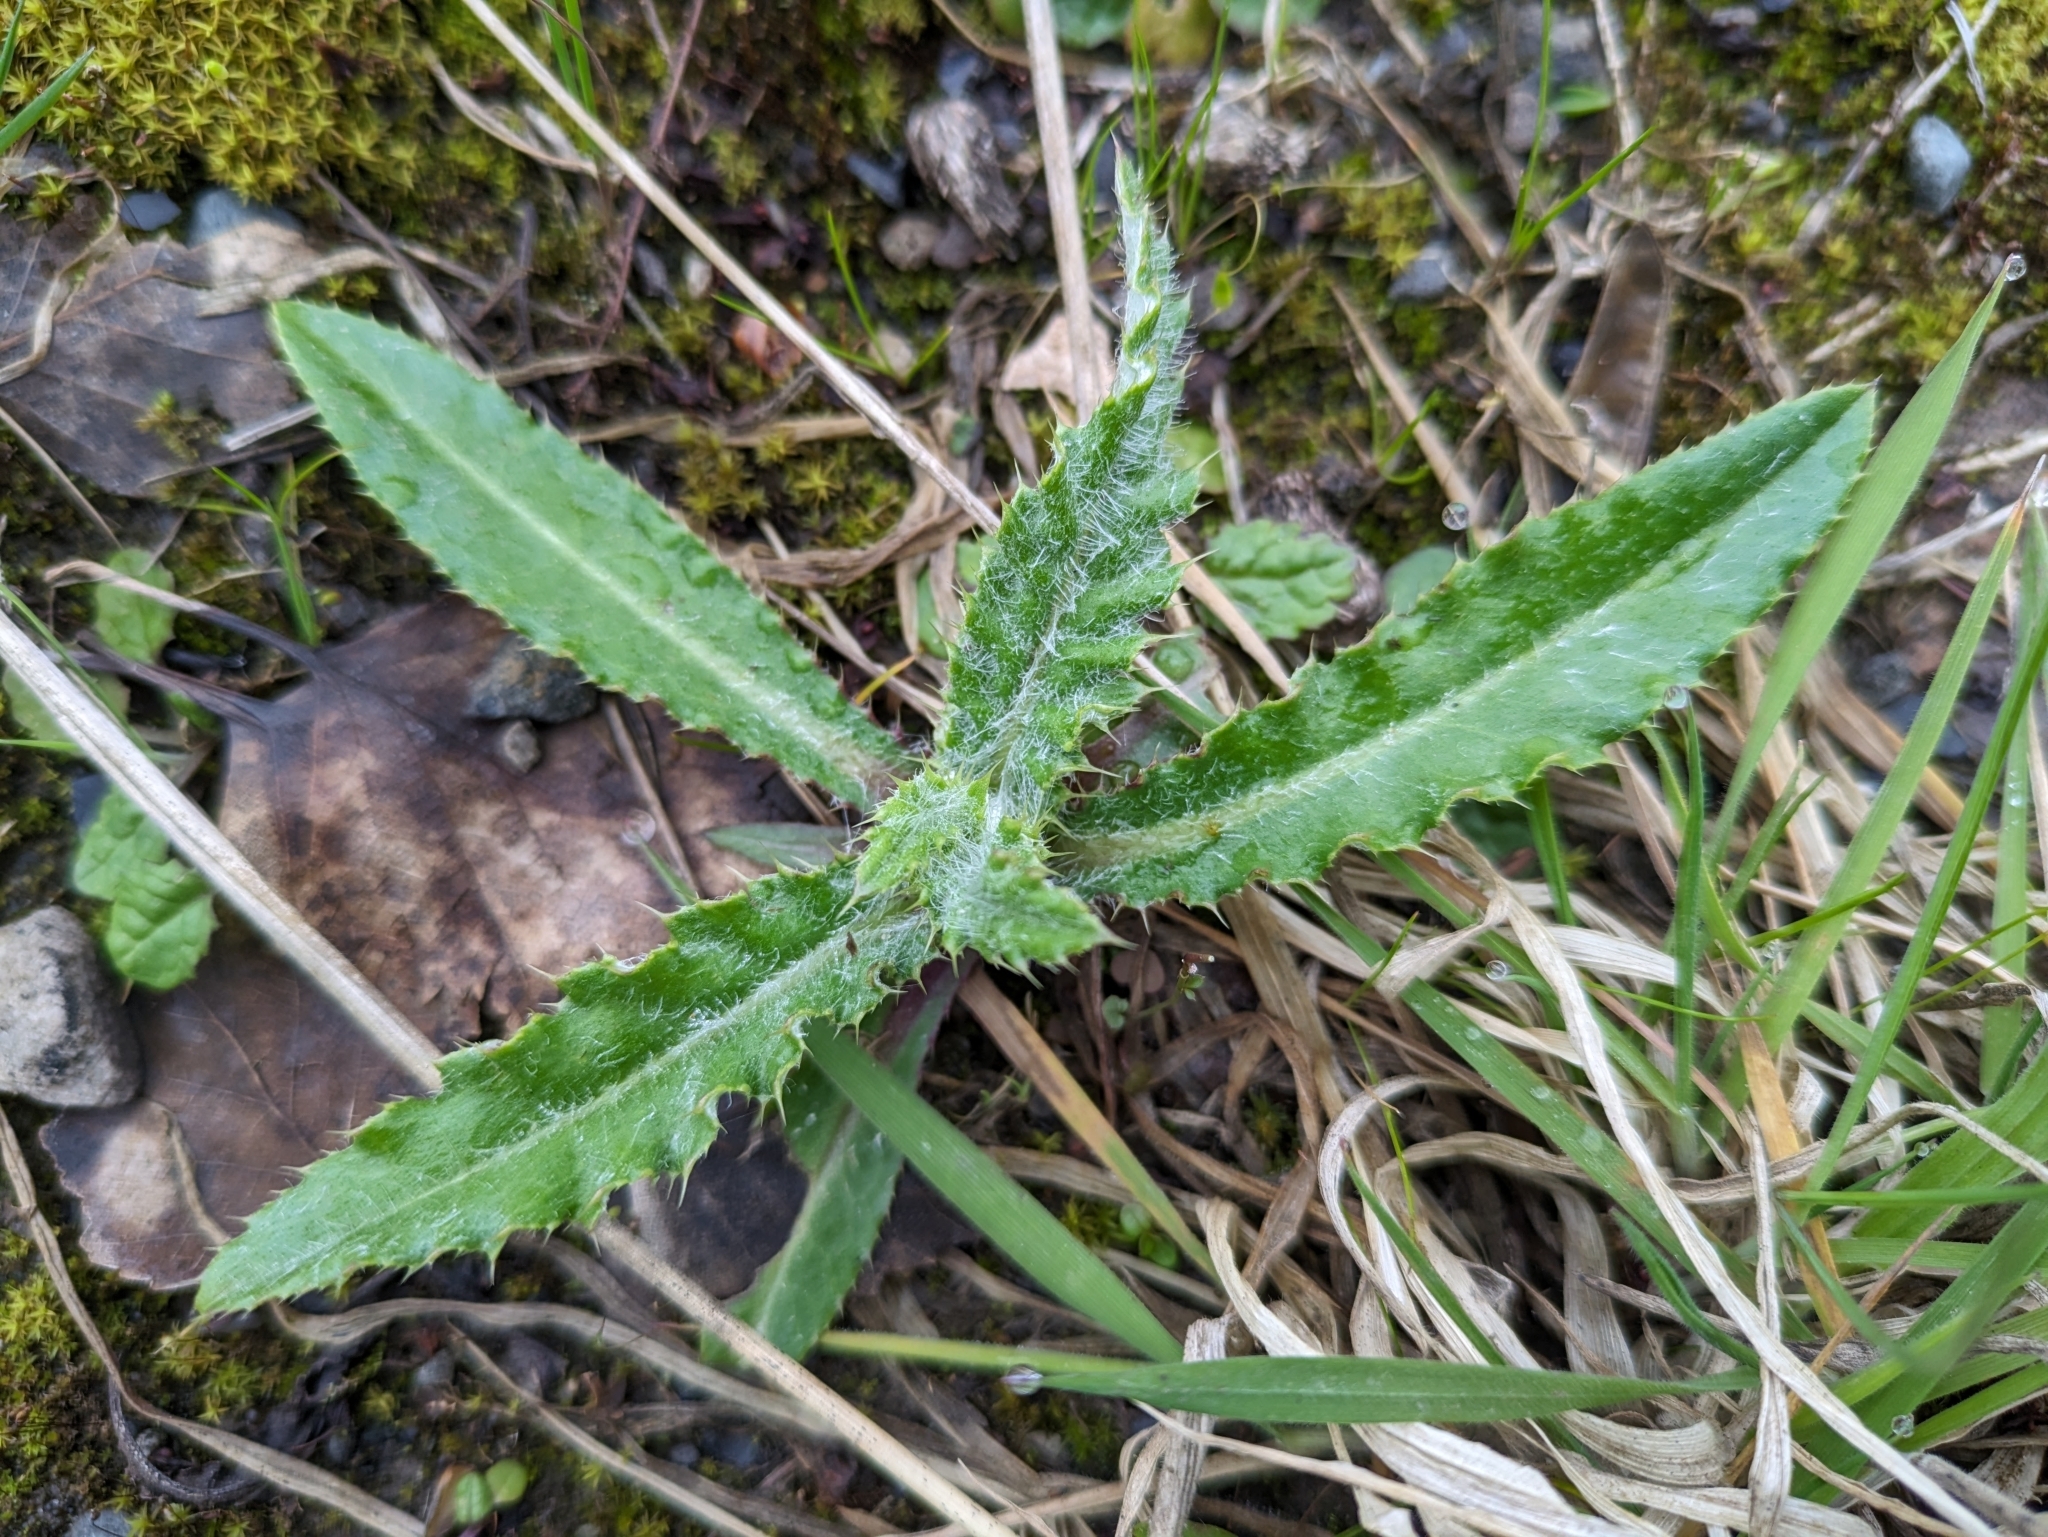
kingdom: Plantae
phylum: Tracheophyta
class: Magnoliopsida
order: Asterales
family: Asteraceae
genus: Cirsium
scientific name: Cirsium arvense
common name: Creeping thistle
